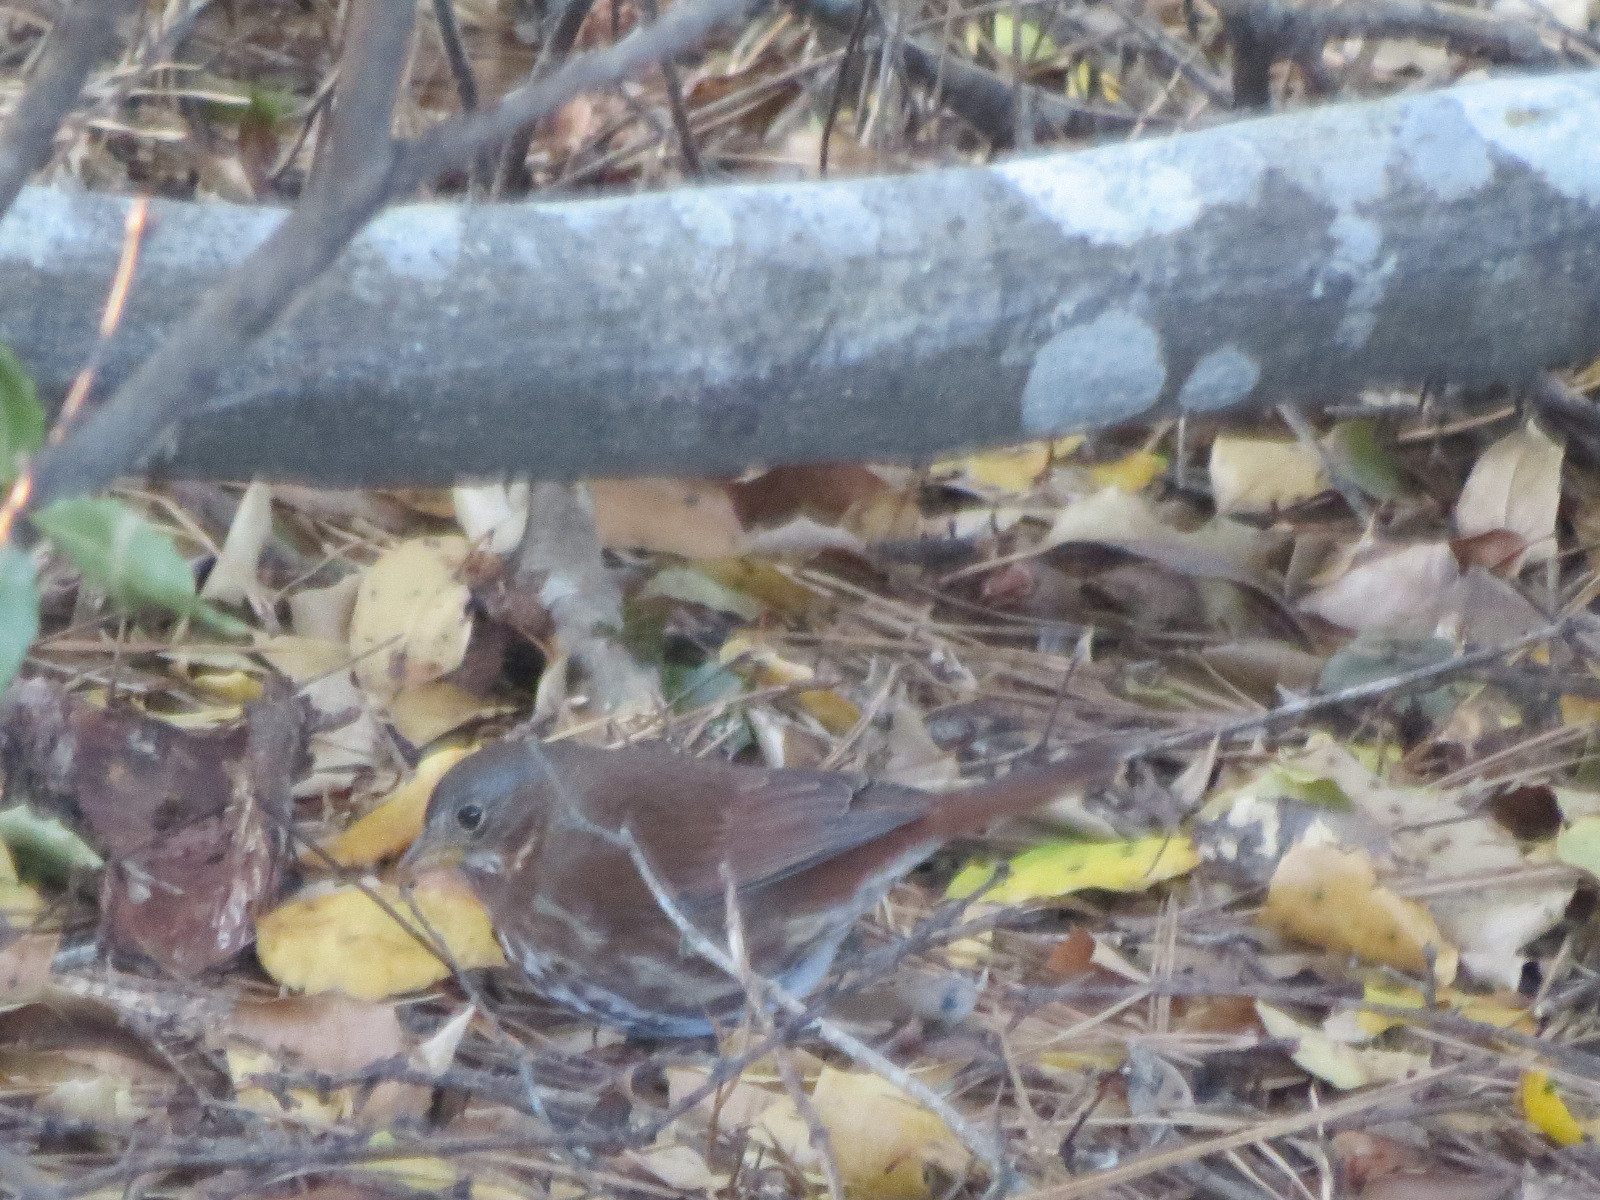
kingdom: Animalia
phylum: Chordata
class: Aves
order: Passeriformes
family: Passerellidae
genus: Passerella
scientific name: Passerella iliaca
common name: Fox sparrow
